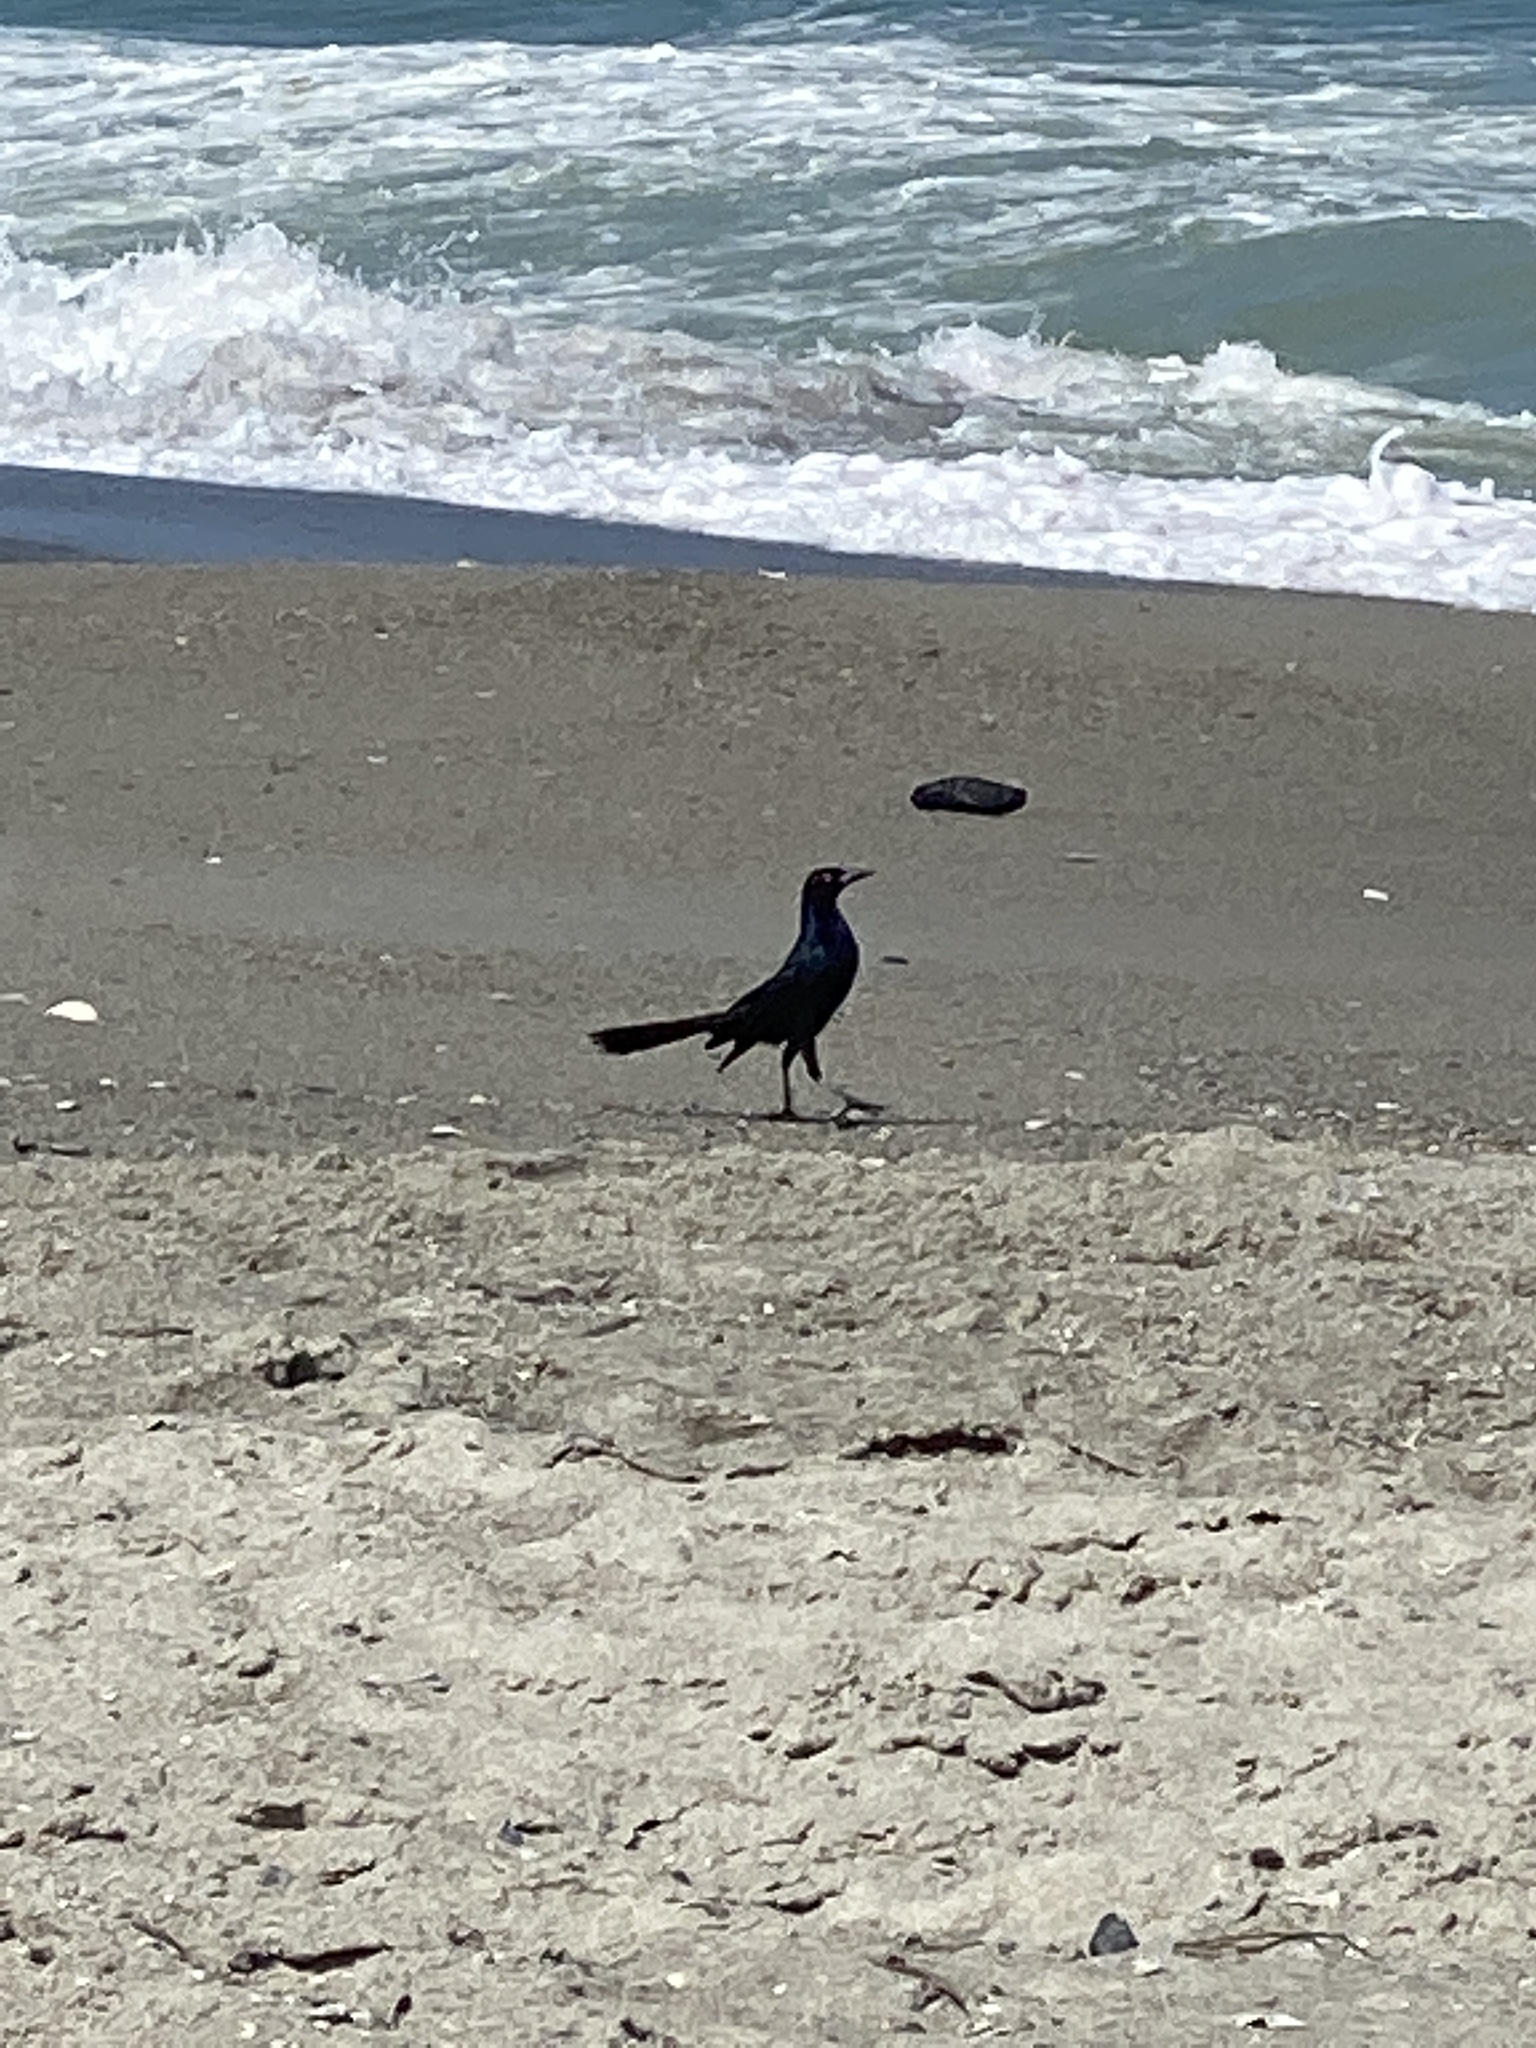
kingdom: Animalia
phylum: Chordata
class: Aves
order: Passeriformes
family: Icteridae
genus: Quiscalus
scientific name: Quiscalus major
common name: Boat-tailed grackle
